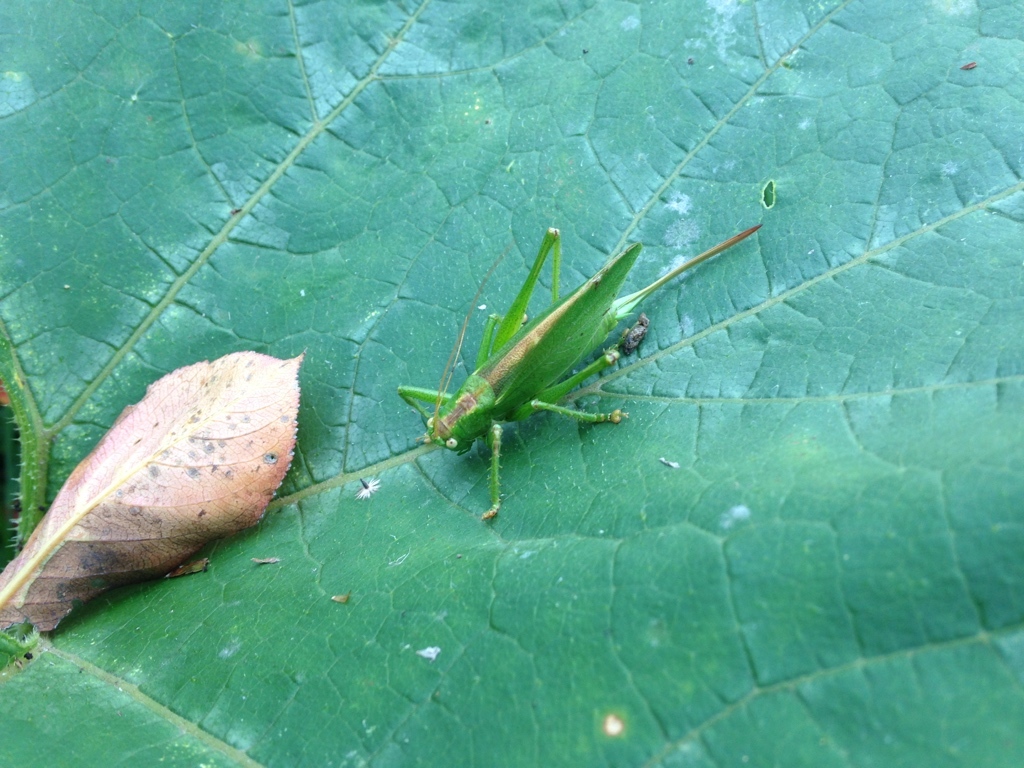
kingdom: Animalia
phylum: Arthropoda
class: Insecta
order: Orthoptera
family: Tettigoniidae
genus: Tettigonia
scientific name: Tettigonia cantans
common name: Upland green bush-cricket
